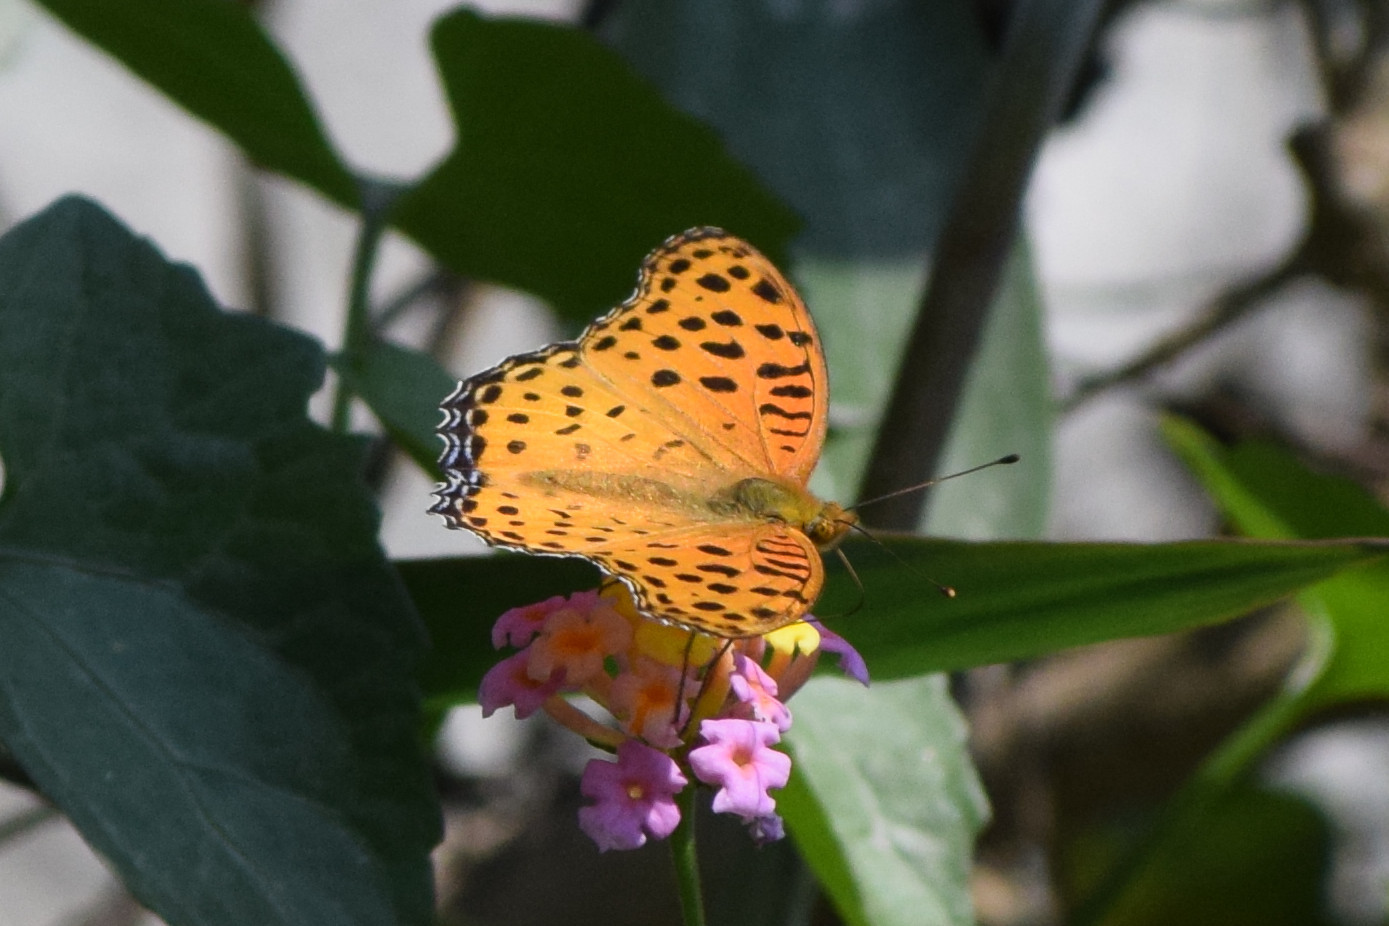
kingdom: Animalia
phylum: Arthropoda
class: Insecta
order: Lepidoptera
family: Nymphalidae
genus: Argynnis
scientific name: Argynnis hyperbius
